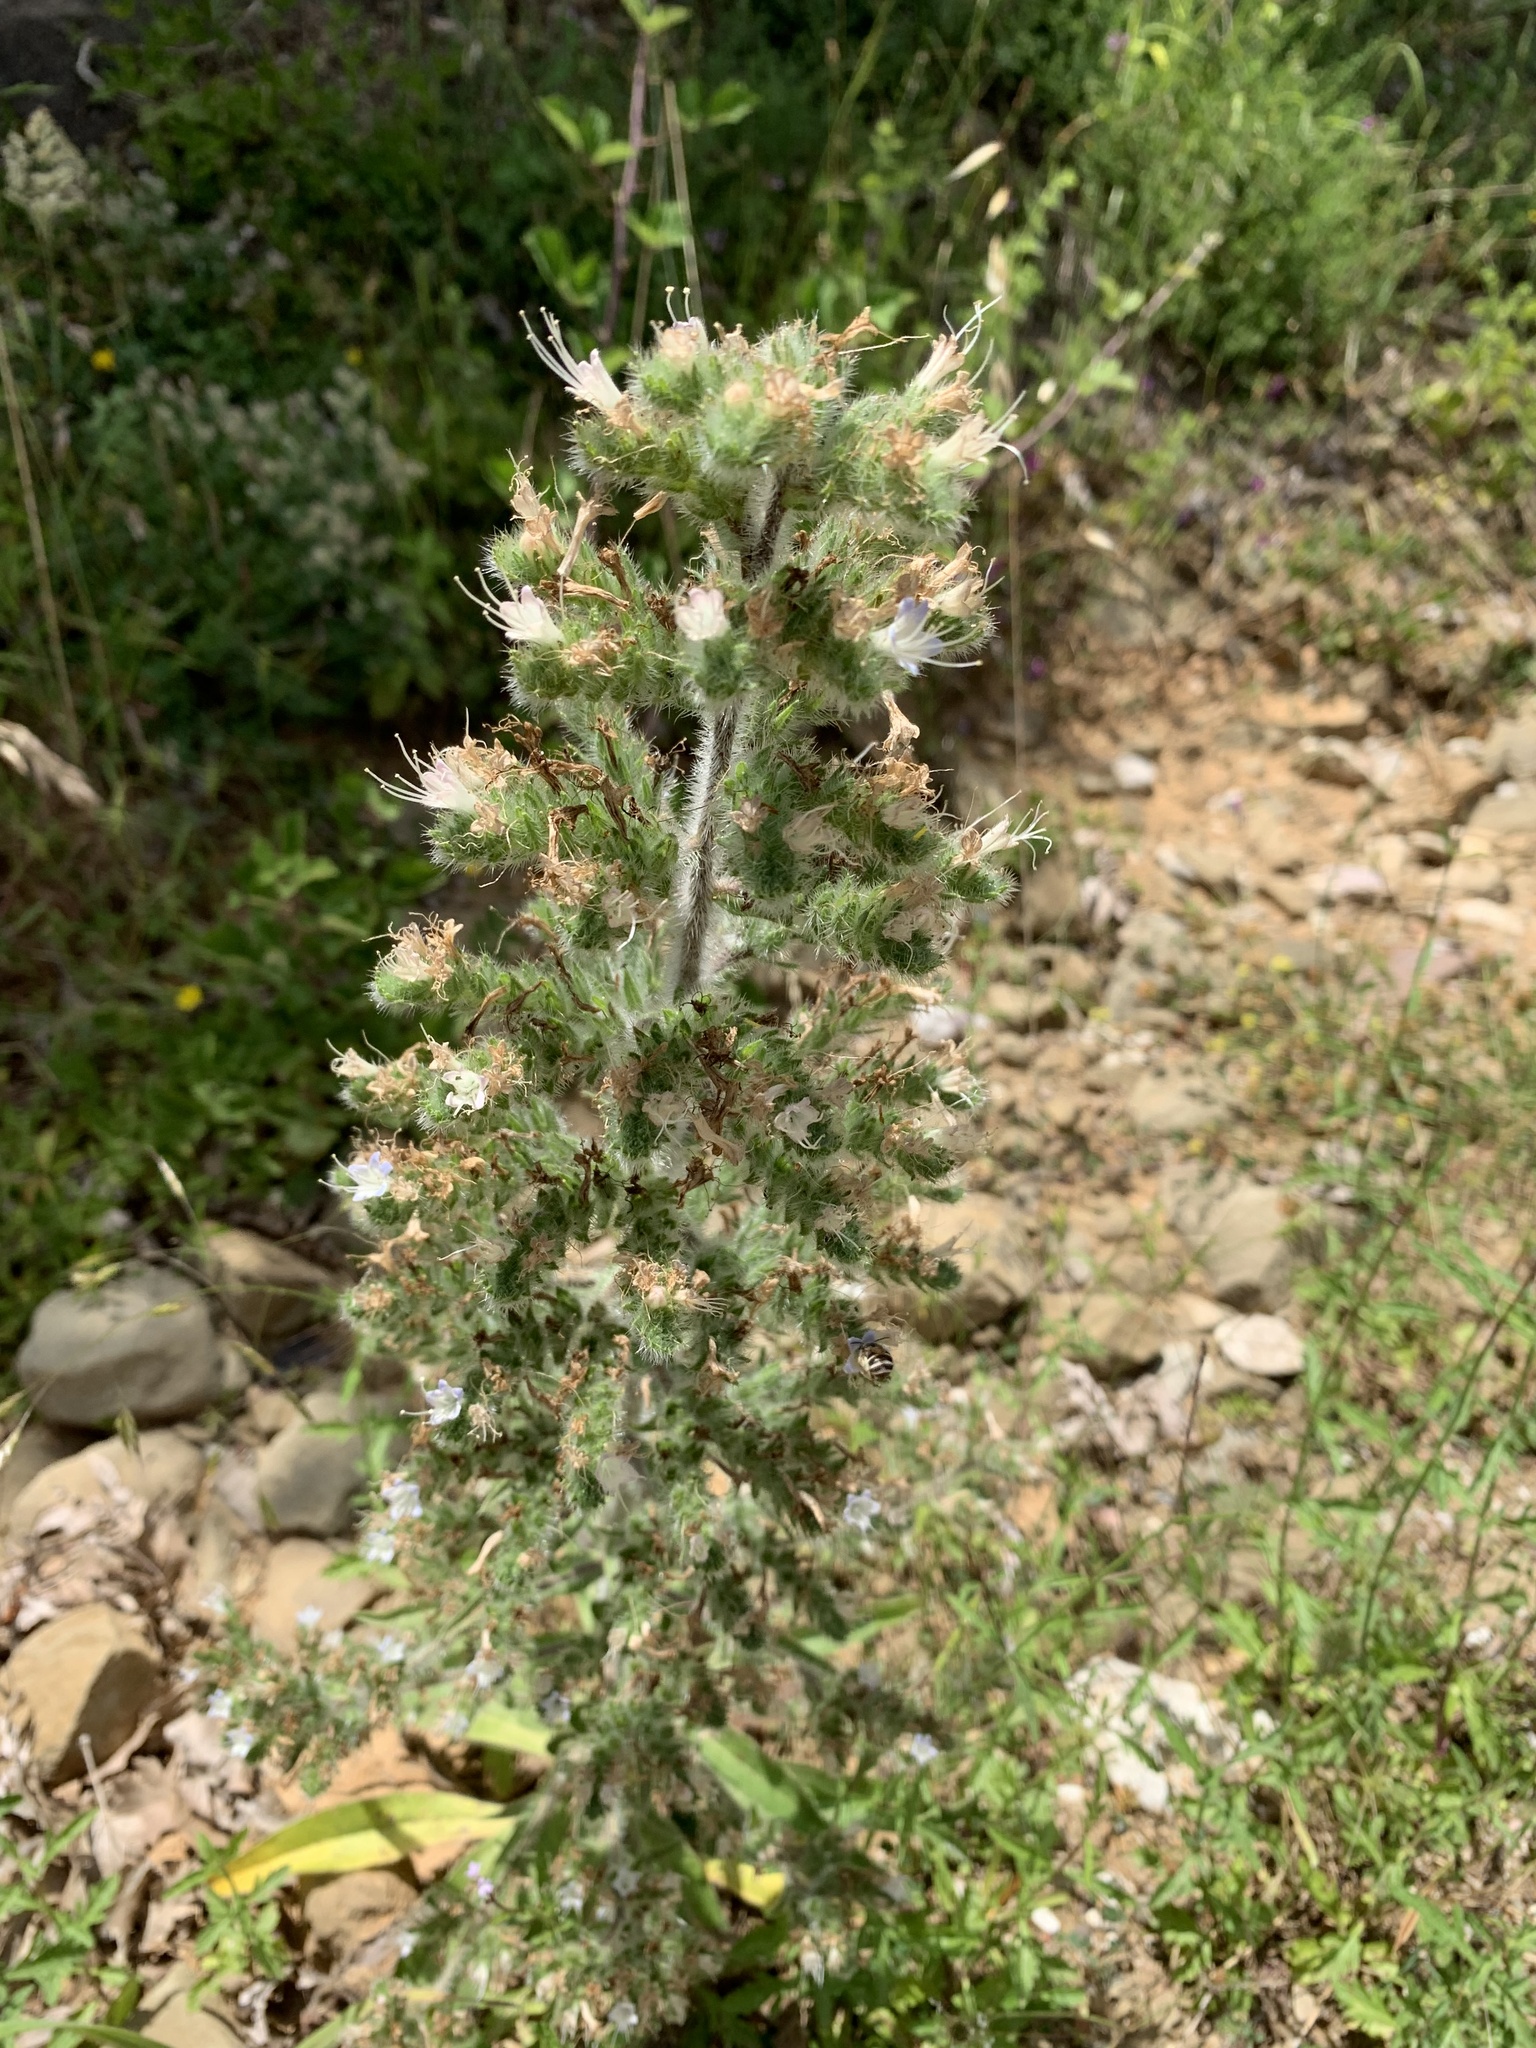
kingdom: Plantae
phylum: Tracheophyta
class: Magnoliopsida
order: Boraginales
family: Boraginaceae
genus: Echium
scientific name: Echium italicum
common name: Italian viper's bugloss
